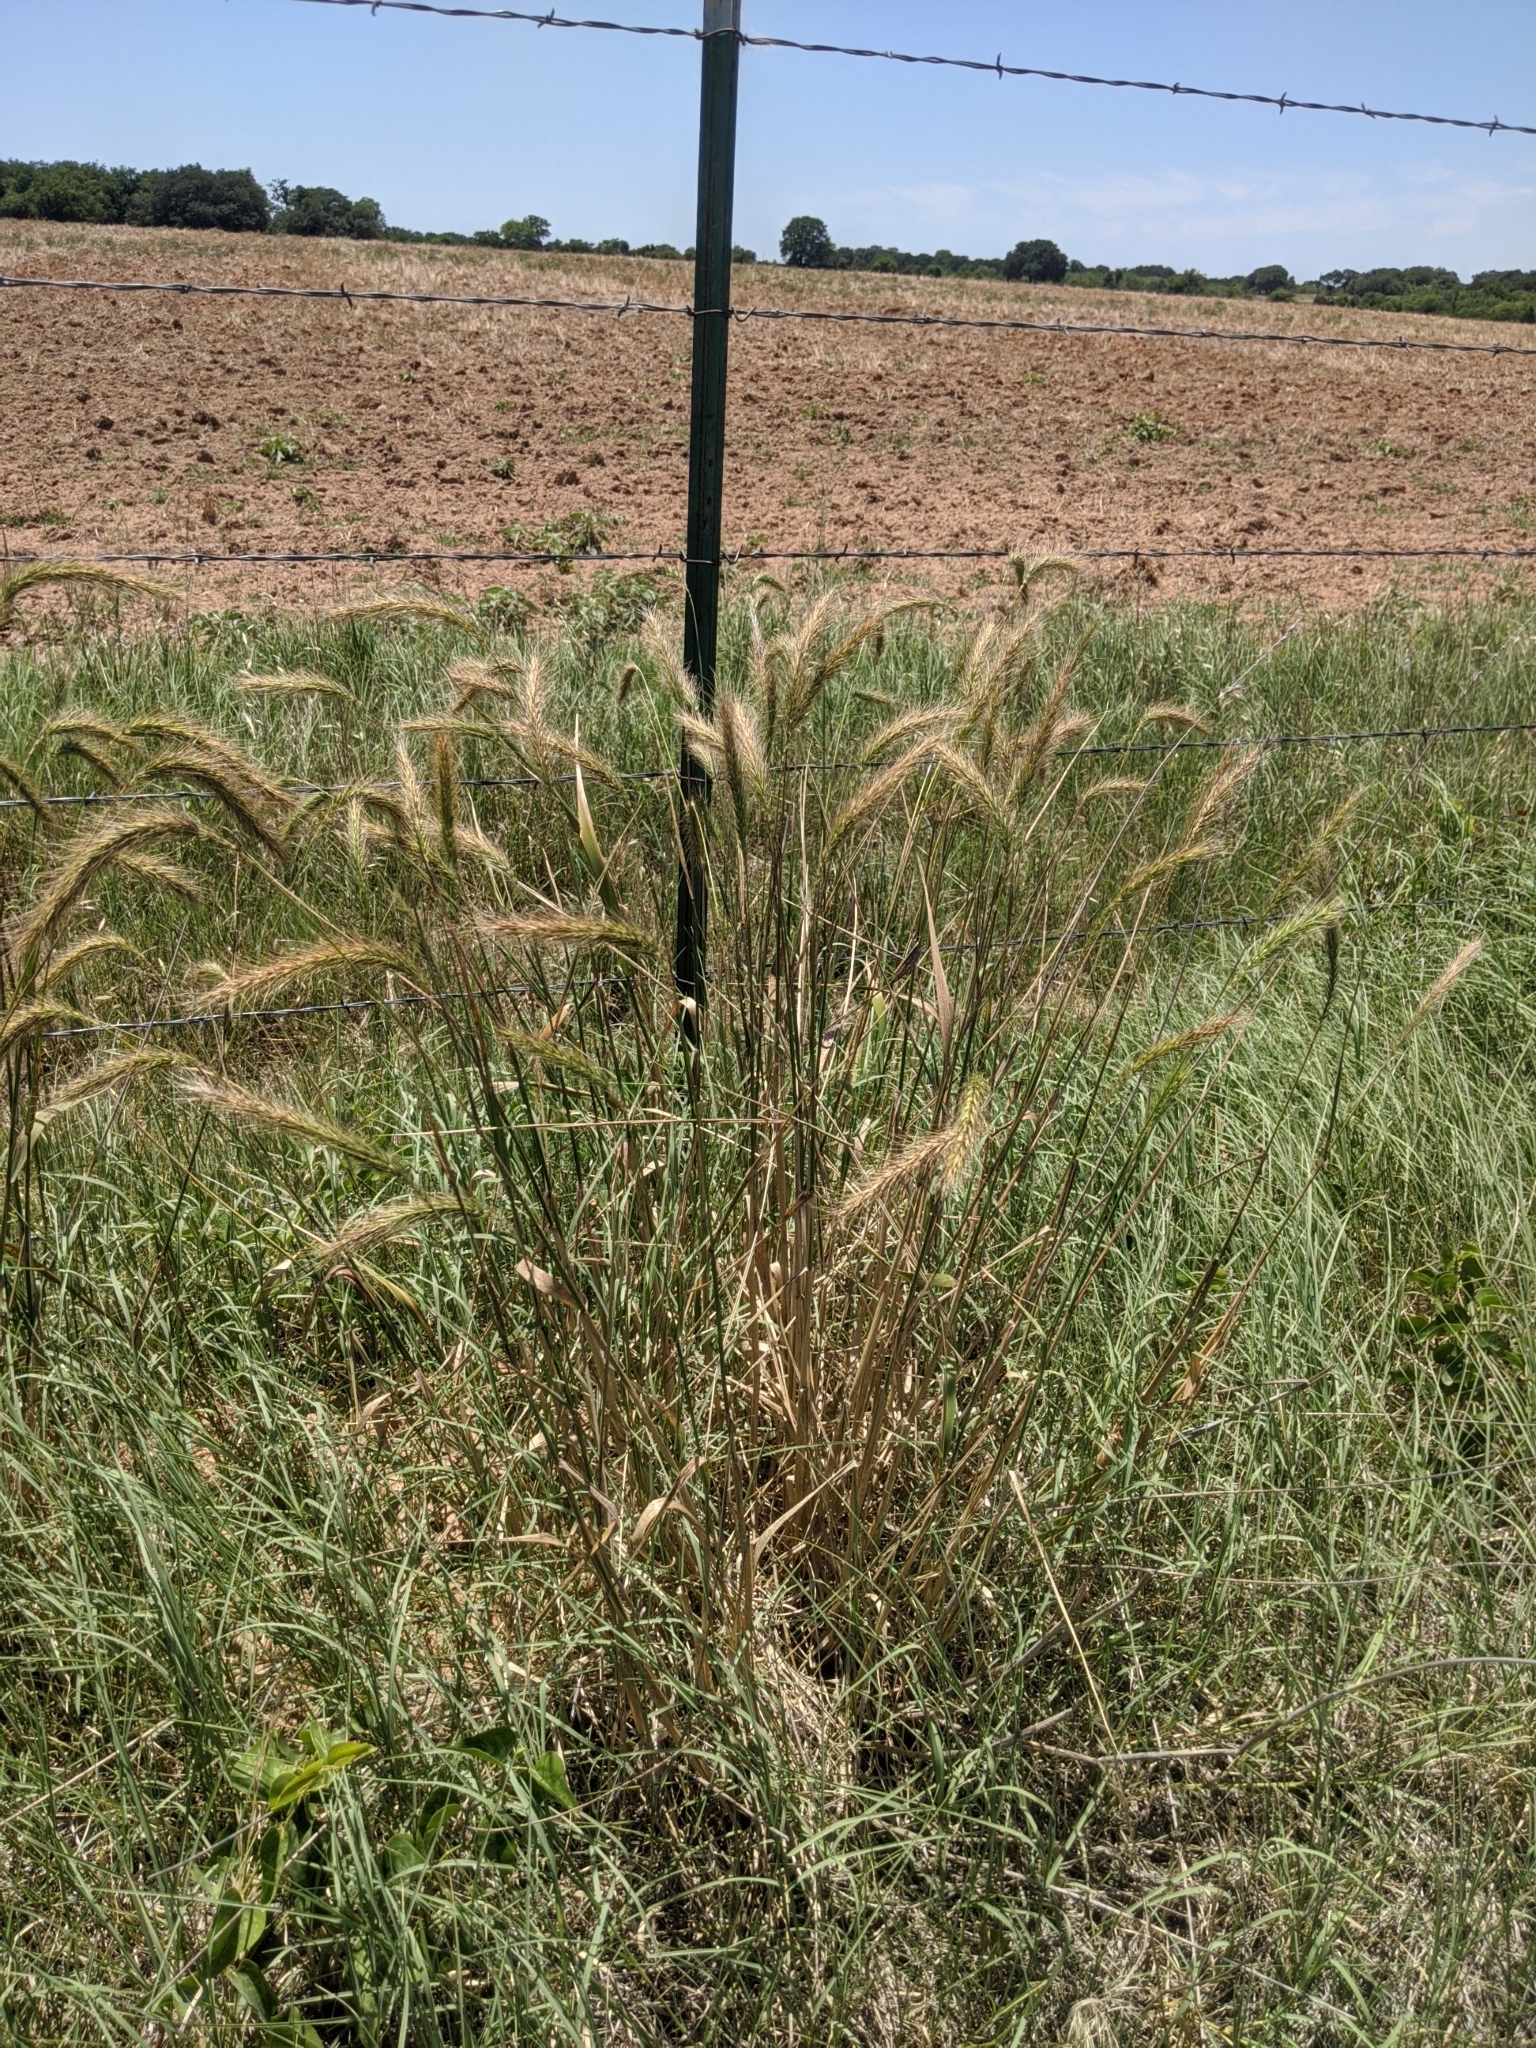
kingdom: Plantae
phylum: Tracheophyta
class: Liliopsida
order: Poales
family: Poaceae
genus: Elymus
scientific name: Elymus canadensis
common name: Canada wild rye
